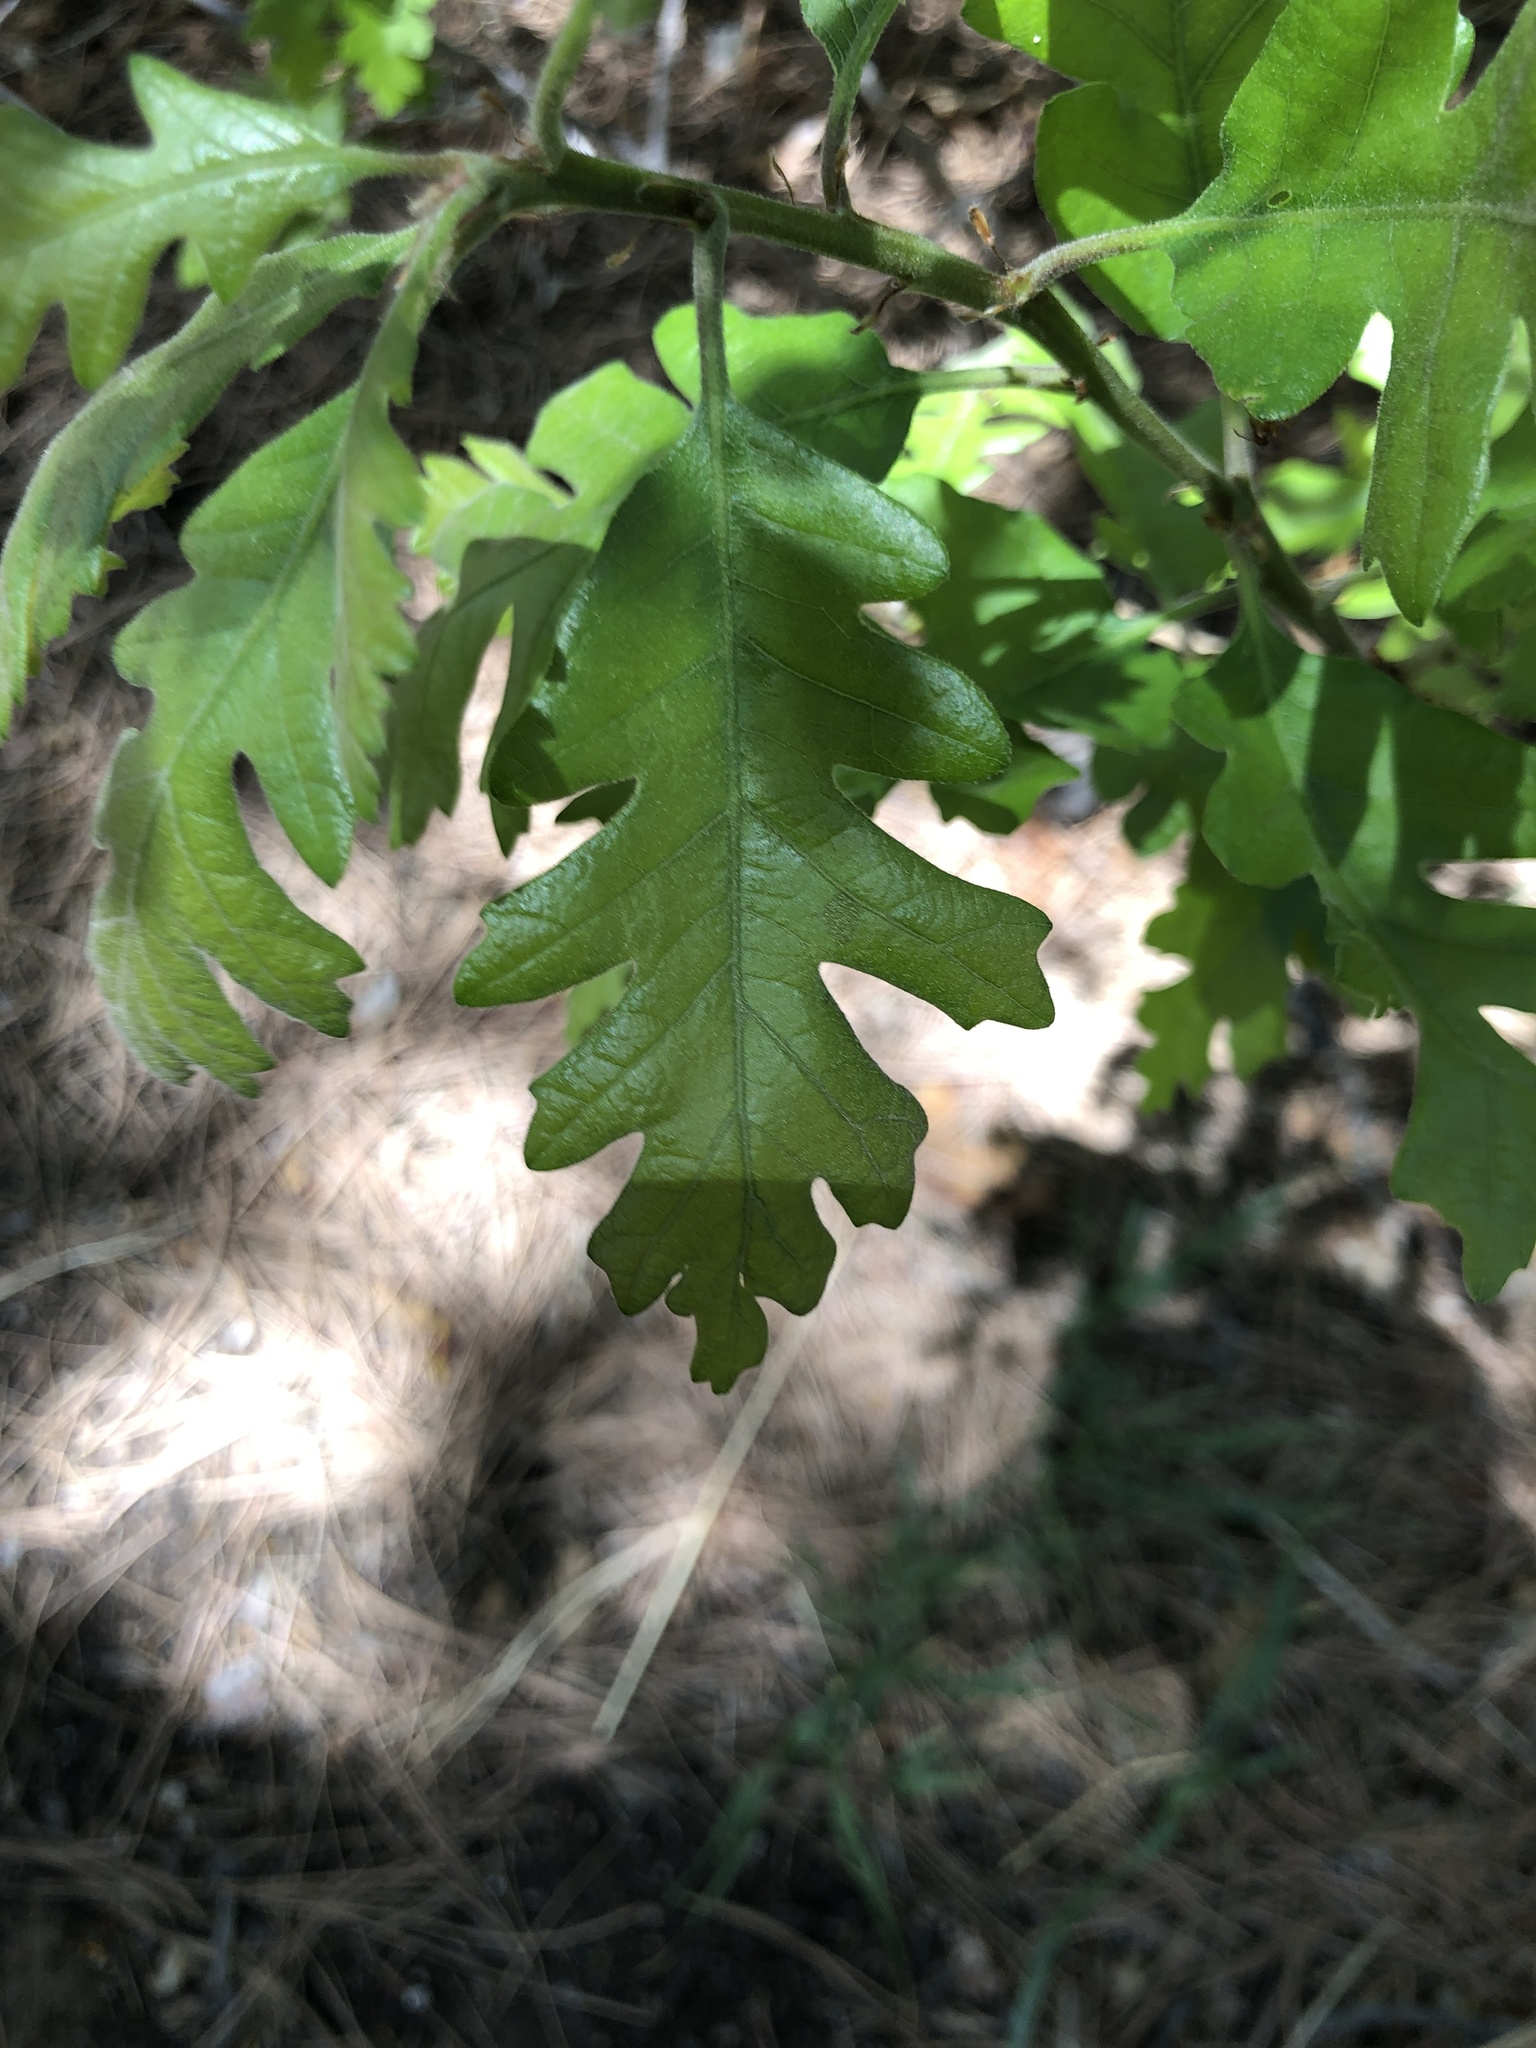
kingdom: Plantae
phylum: Tracheophyta
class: Magnoliopsida
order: Fagales
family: Fagaceae
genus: Quercus
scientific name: Quercus gambelii
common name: Gambel oak
